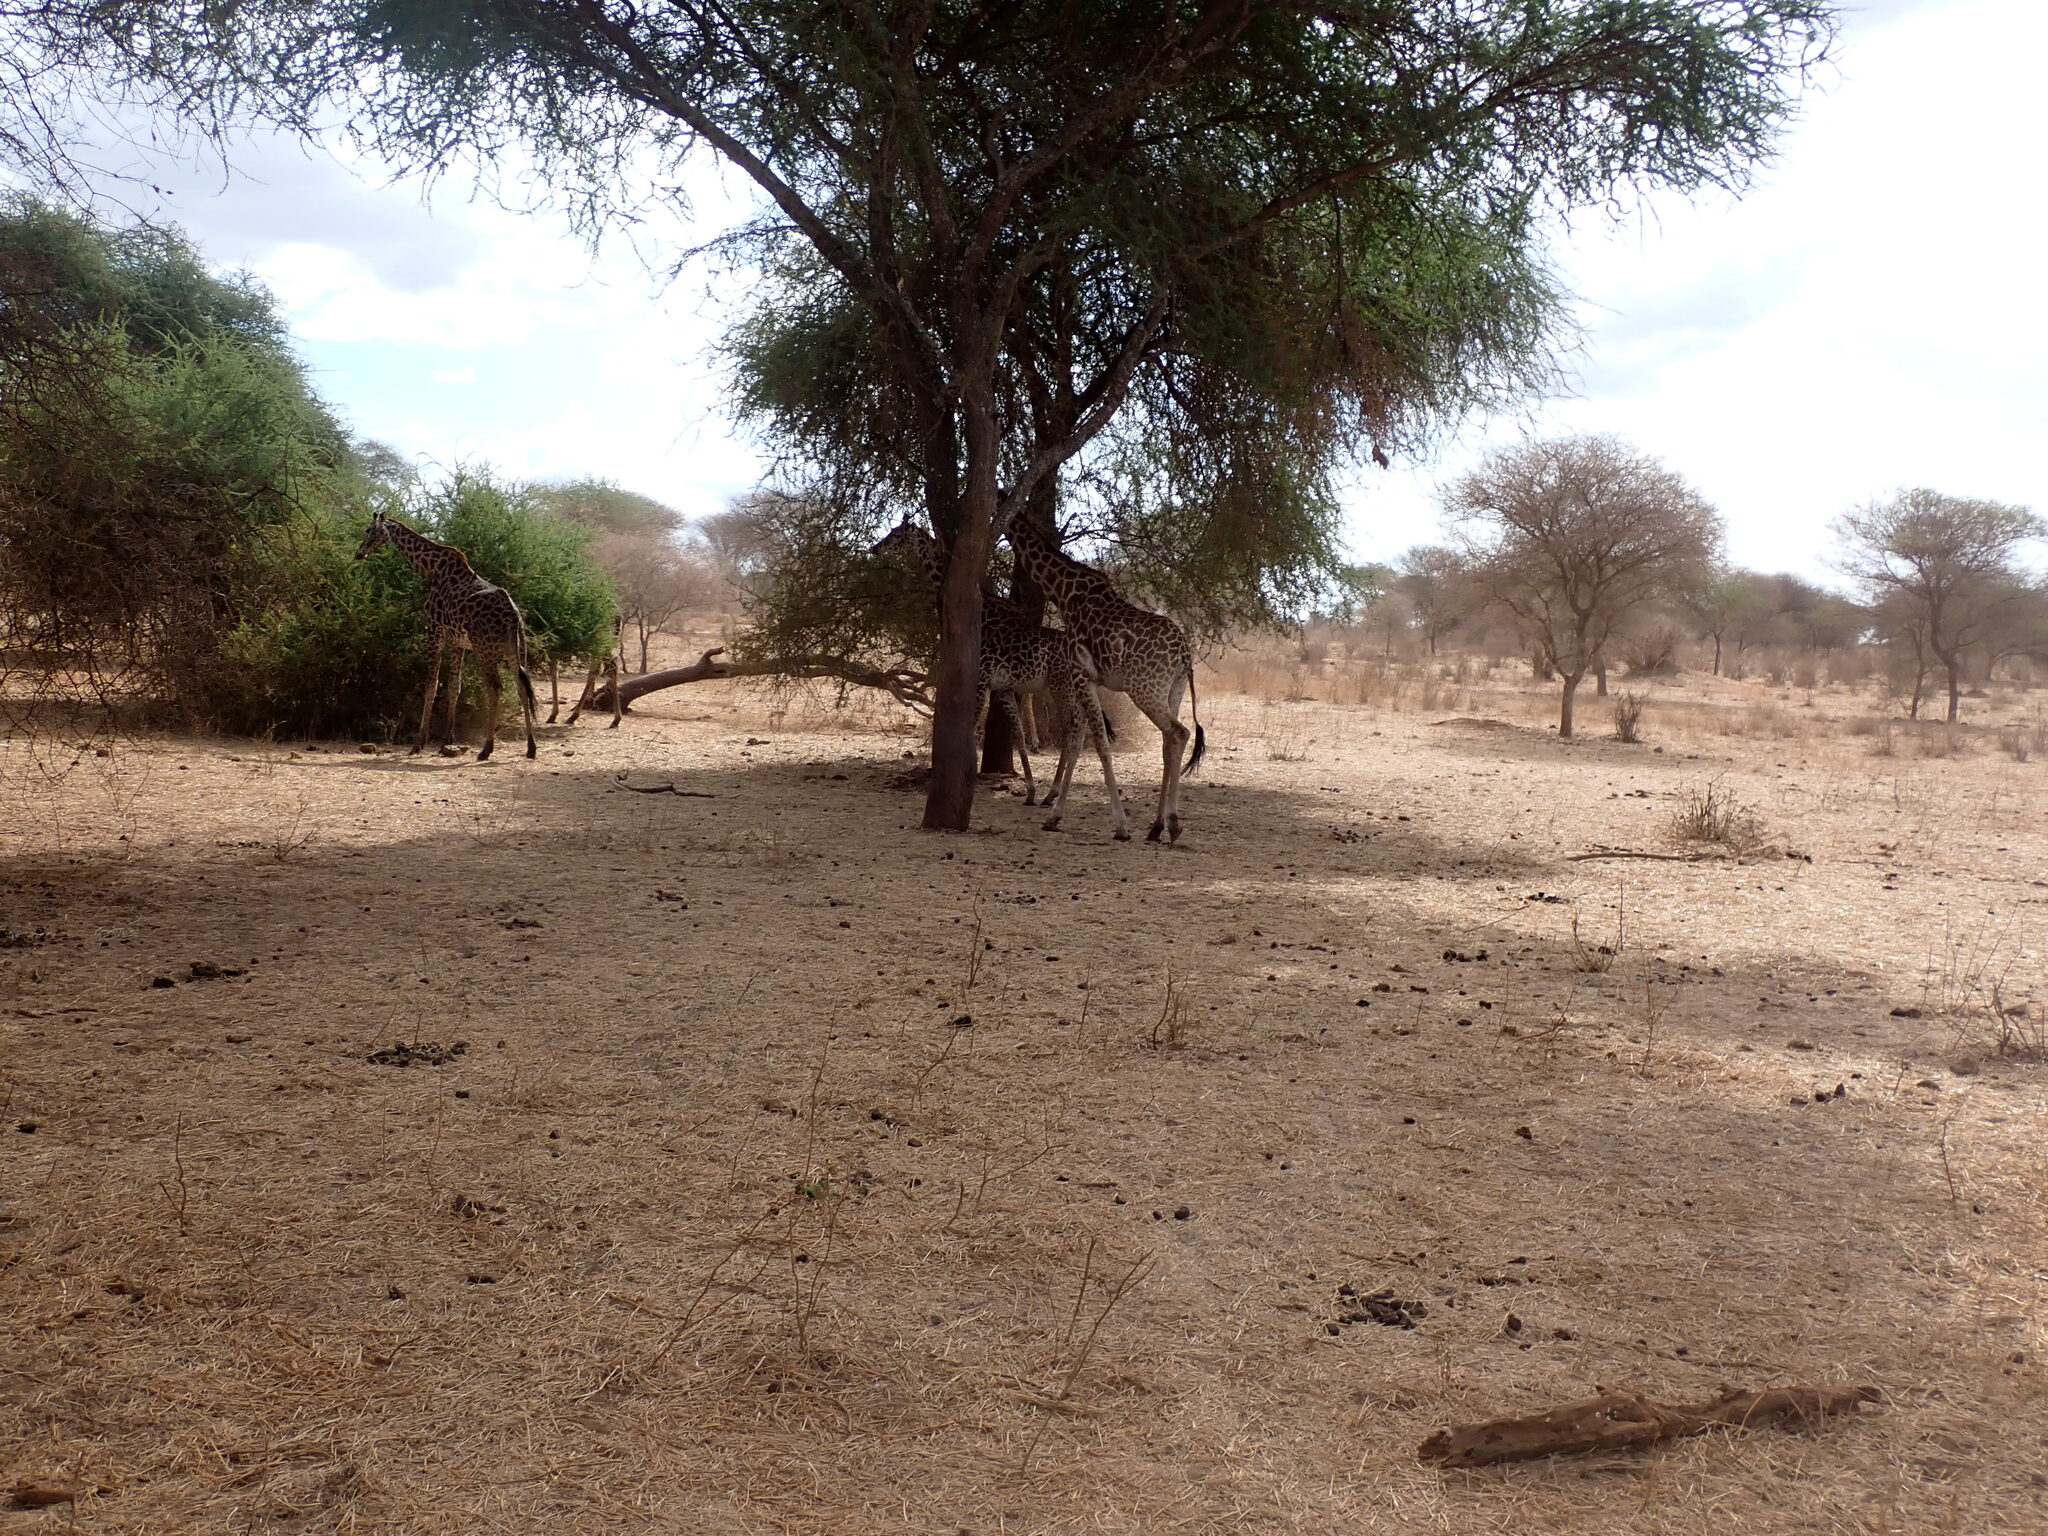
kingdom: Animalia
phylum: Chordata
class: Mammalia
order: Artiodactyla
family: Giraffidae
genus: Giraffa
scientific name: Giraffa tippelskirchi
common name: Masai giraffe
